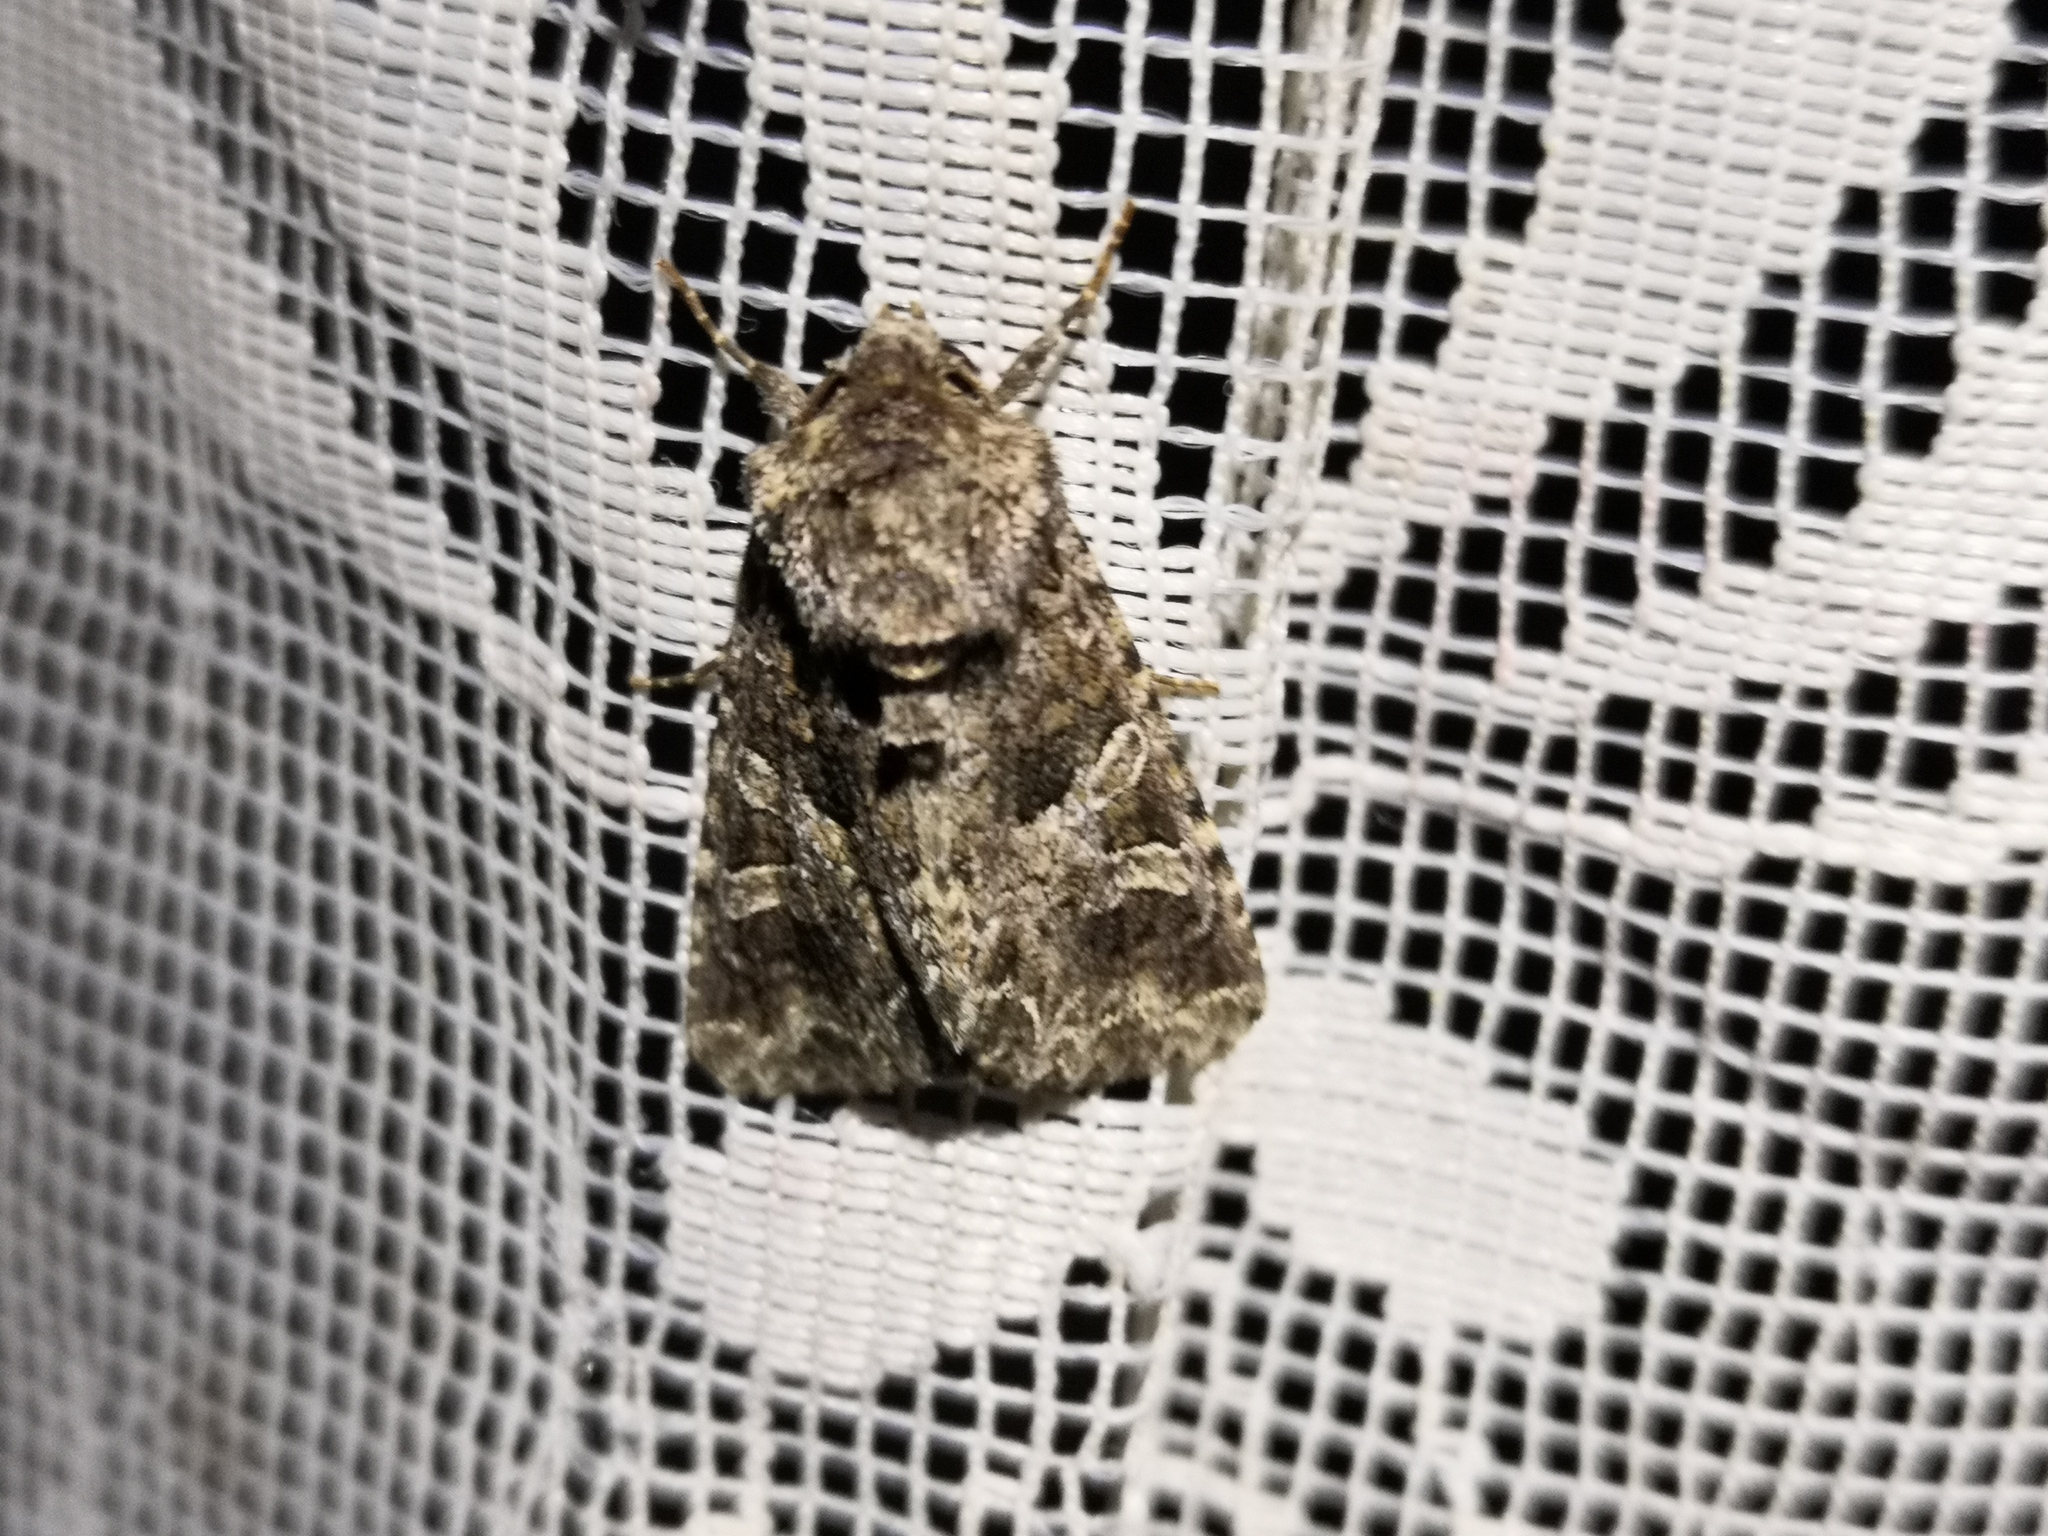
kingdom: Animalia
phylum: Arthropoda
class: Insecta
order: Lepidoptera
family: Noctuidae
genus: Hadena
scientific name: Hadena bicruris
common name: Lychnis
